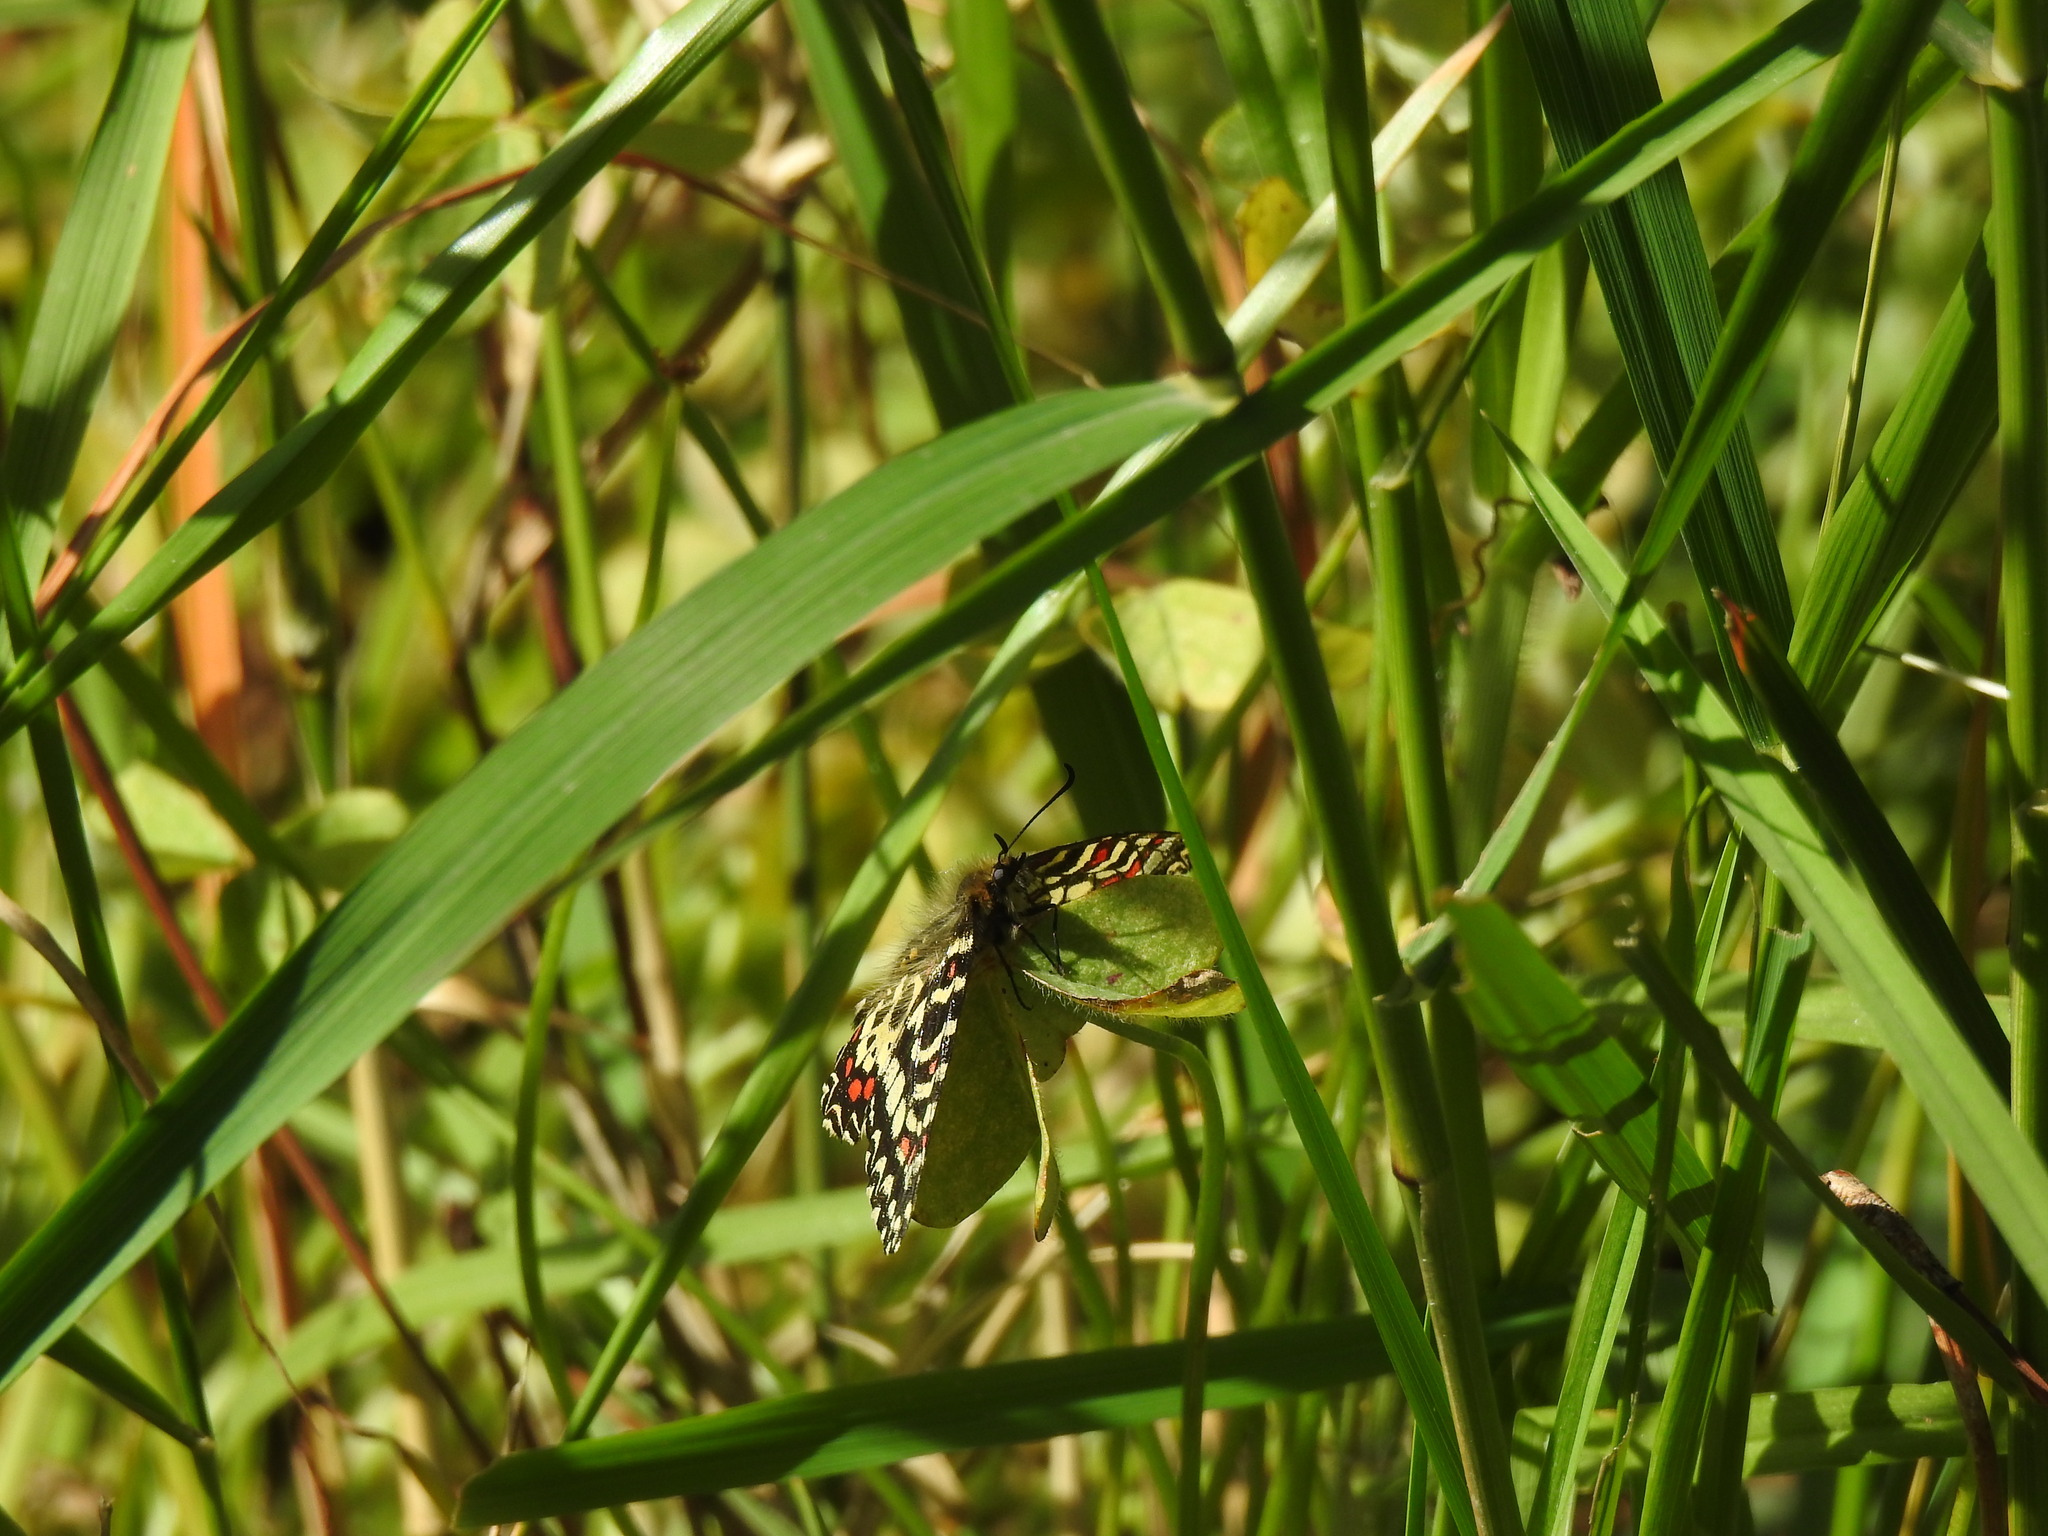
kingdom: Animalia
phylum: Arthropoda
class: Insecta
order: Lepidoptera
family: Papilionidae
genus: Zerynthia
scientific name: Zerynthia rumina
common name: Spanish festoon
